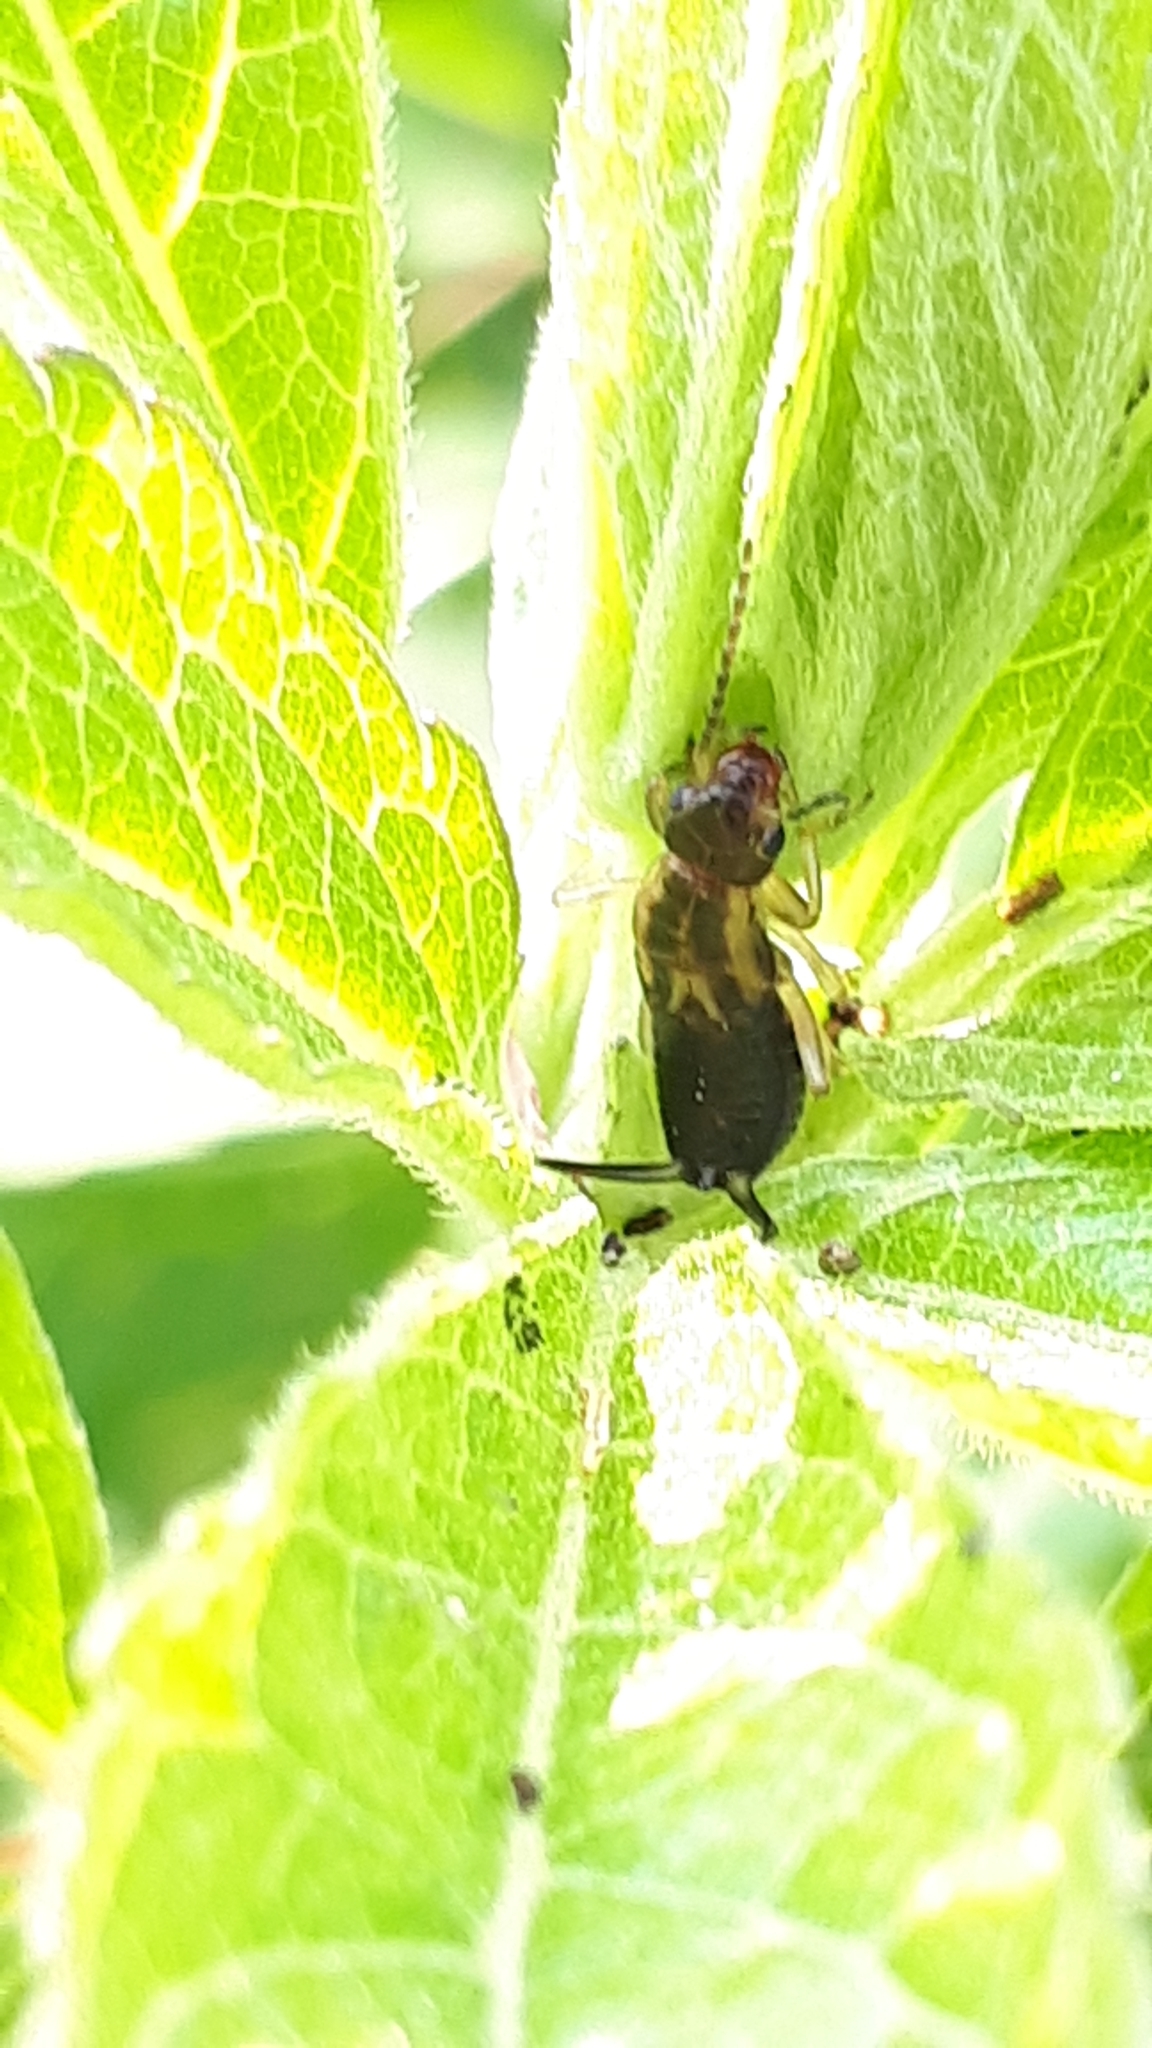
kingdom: Animalia
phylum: Arthropoda
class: Insecta
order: Dermaptera
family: Forficulidae
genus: Forficula
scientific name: Forficula
